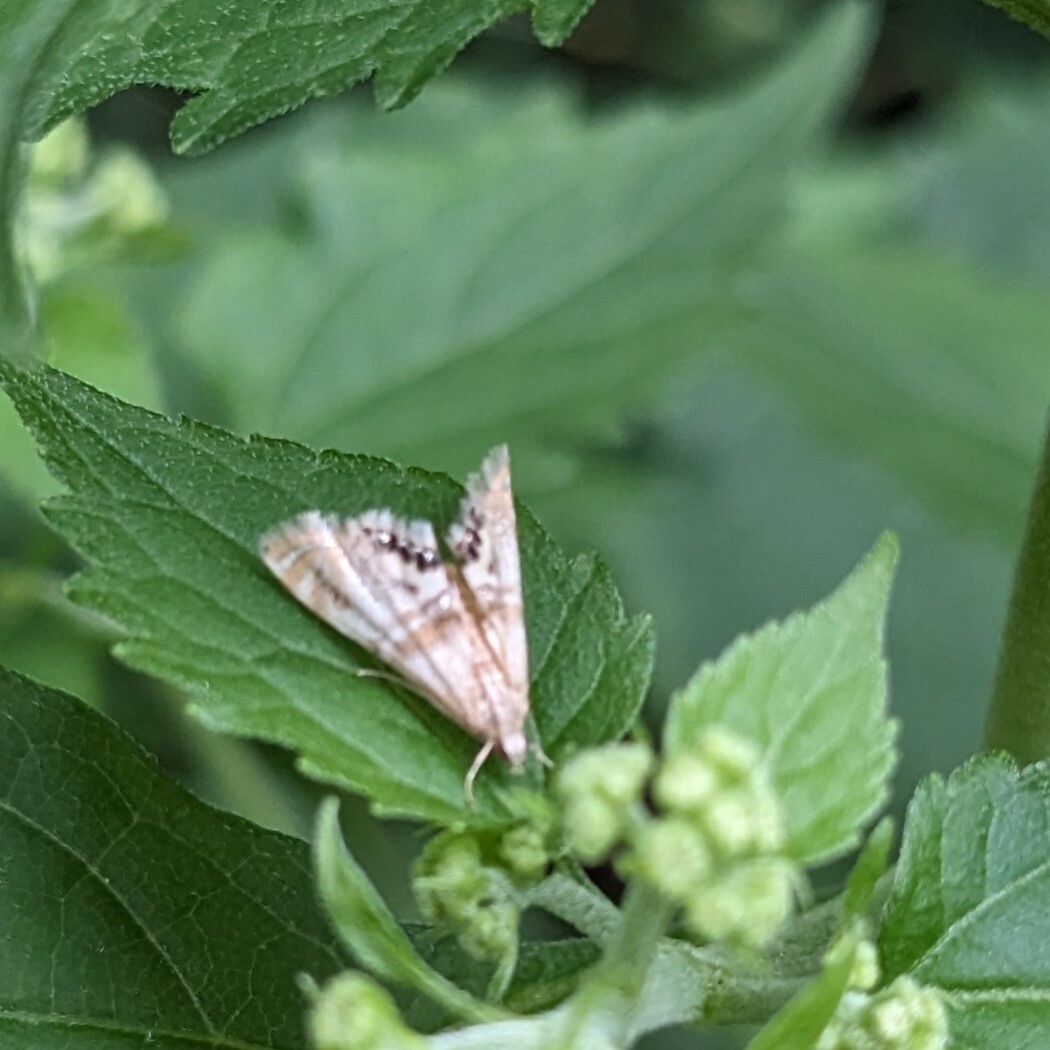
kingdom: Animalia
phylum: Arthropoda
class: Insecta
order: Lepidoptera
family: Crambidae
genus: Petrophila
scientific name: Petrophila bifascialis
